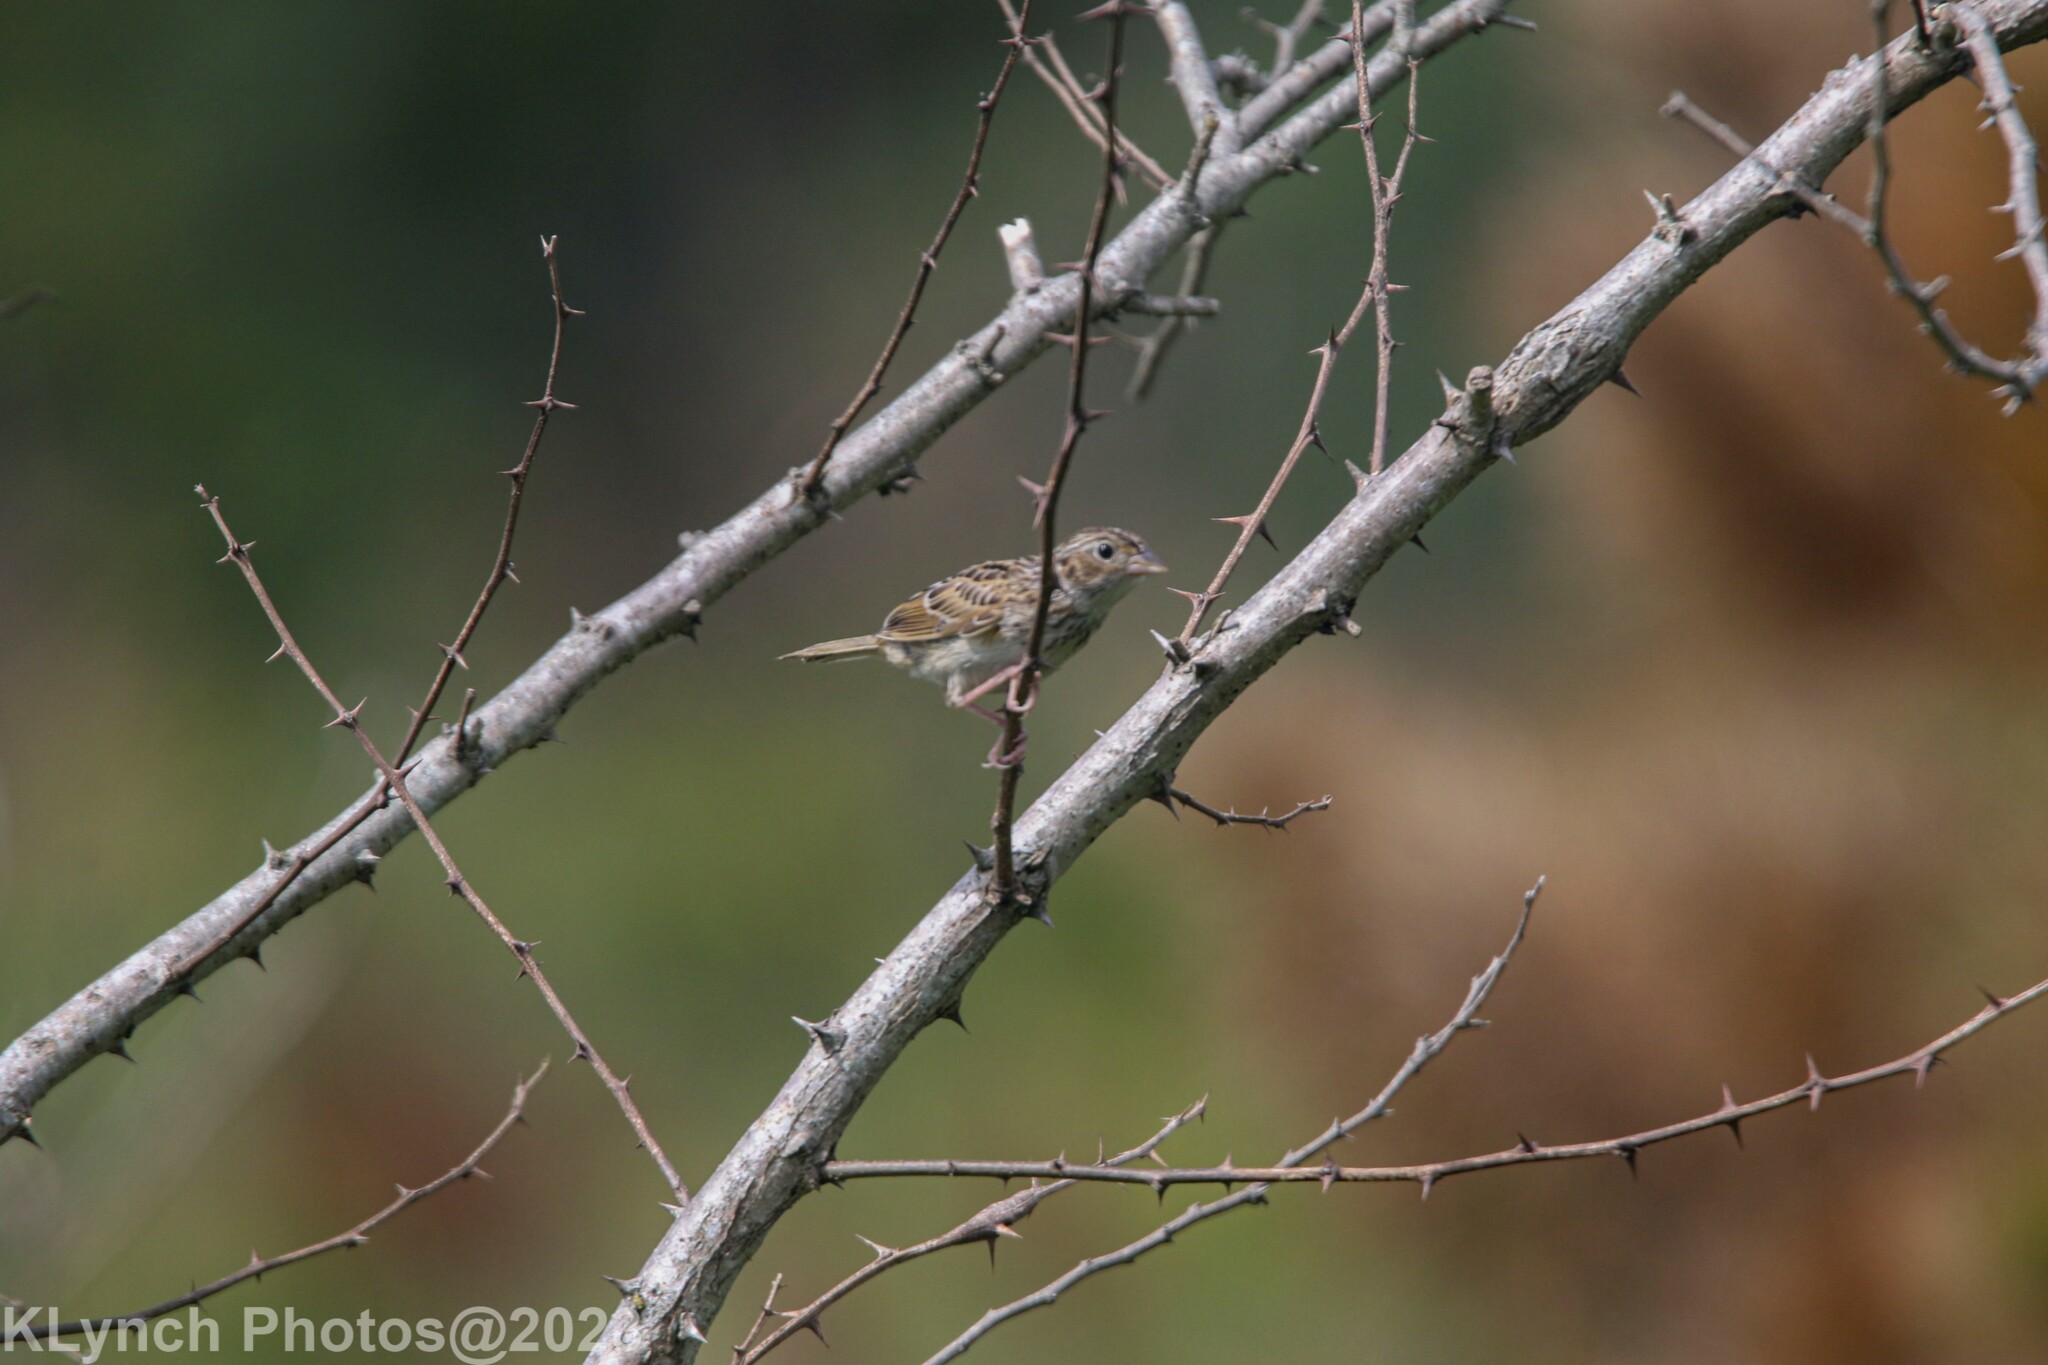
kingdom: Animalia
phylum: Chordata
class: Aves
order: Passeriformes
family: Passerellidae
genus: Ammodramus
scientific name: Ammodramus savannarum
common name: Grasshopper sparrow
